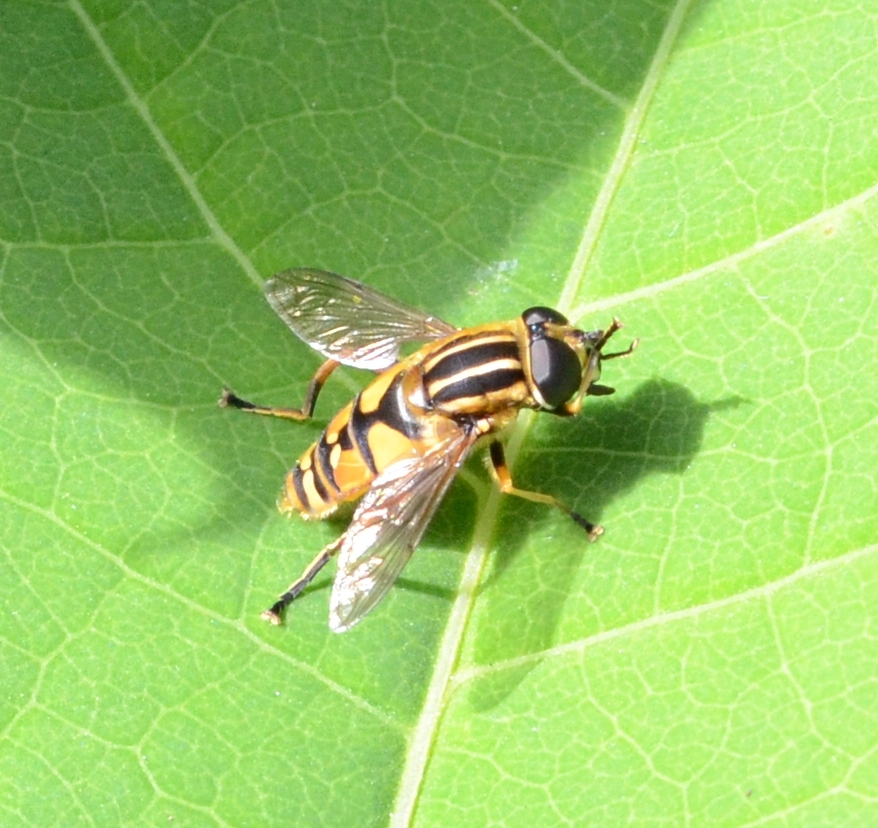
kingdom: Animalia
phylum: Arthropoda
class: Insecta
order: Diptera
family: Syrphidae
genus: Helophilus
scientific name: Helophilus pendulus
